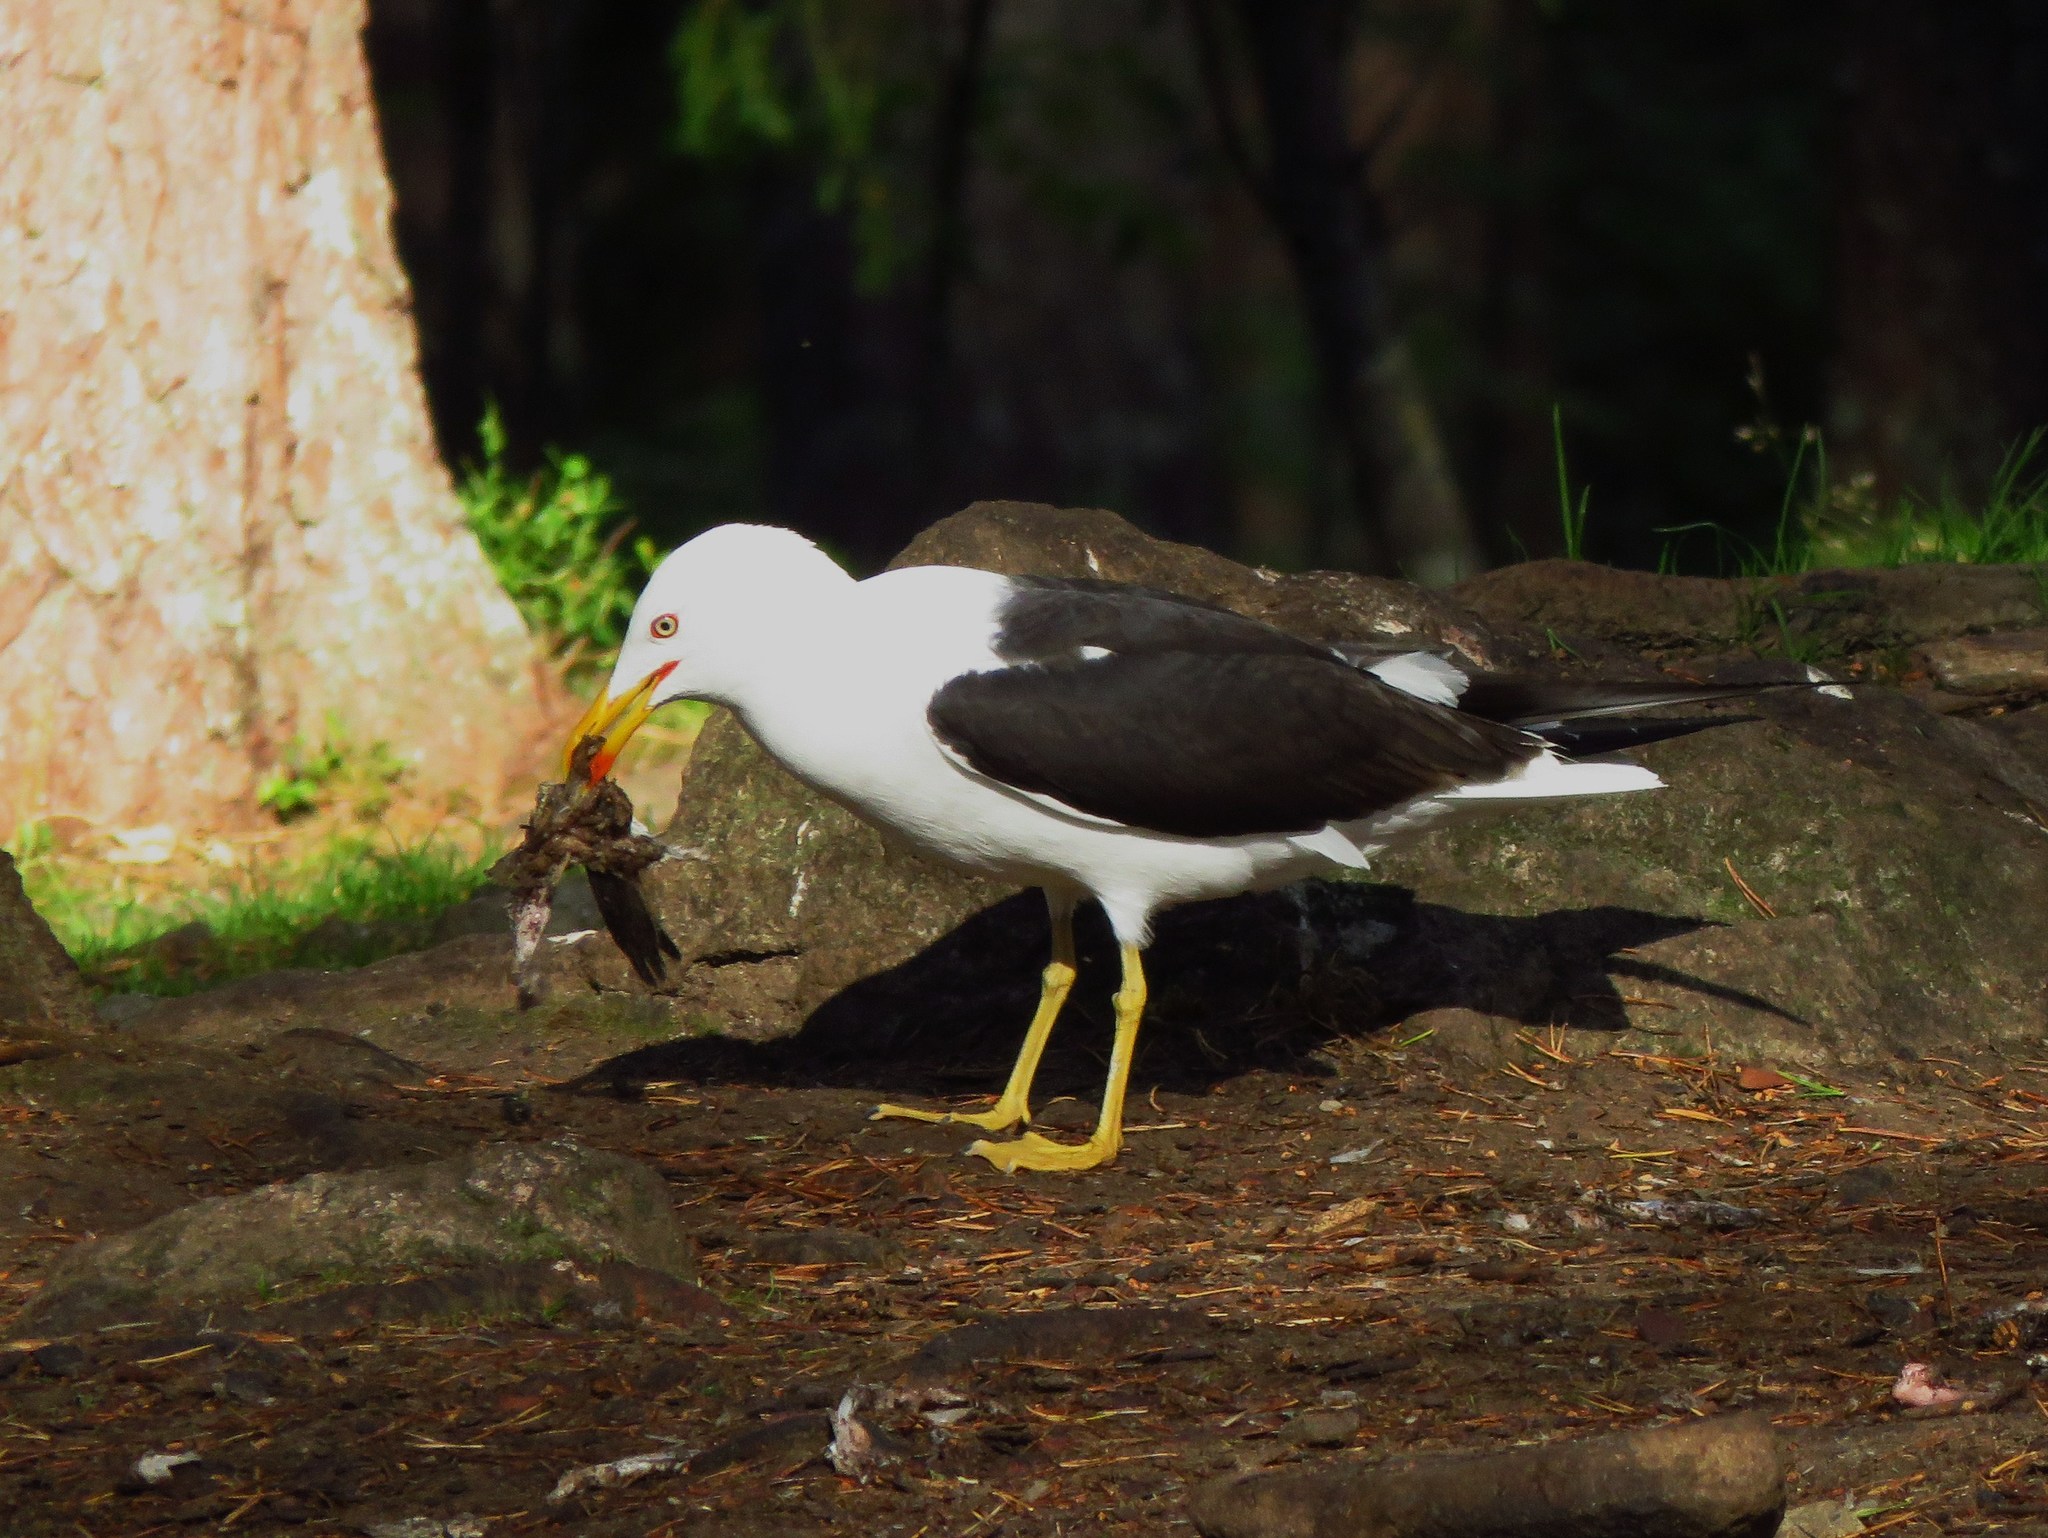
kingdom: Animalia
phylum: Chordata
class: Aves
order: Charadriiformes
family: Laridae
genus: Larus
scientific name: Larus fuscus
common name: Lesser black-backed gull
